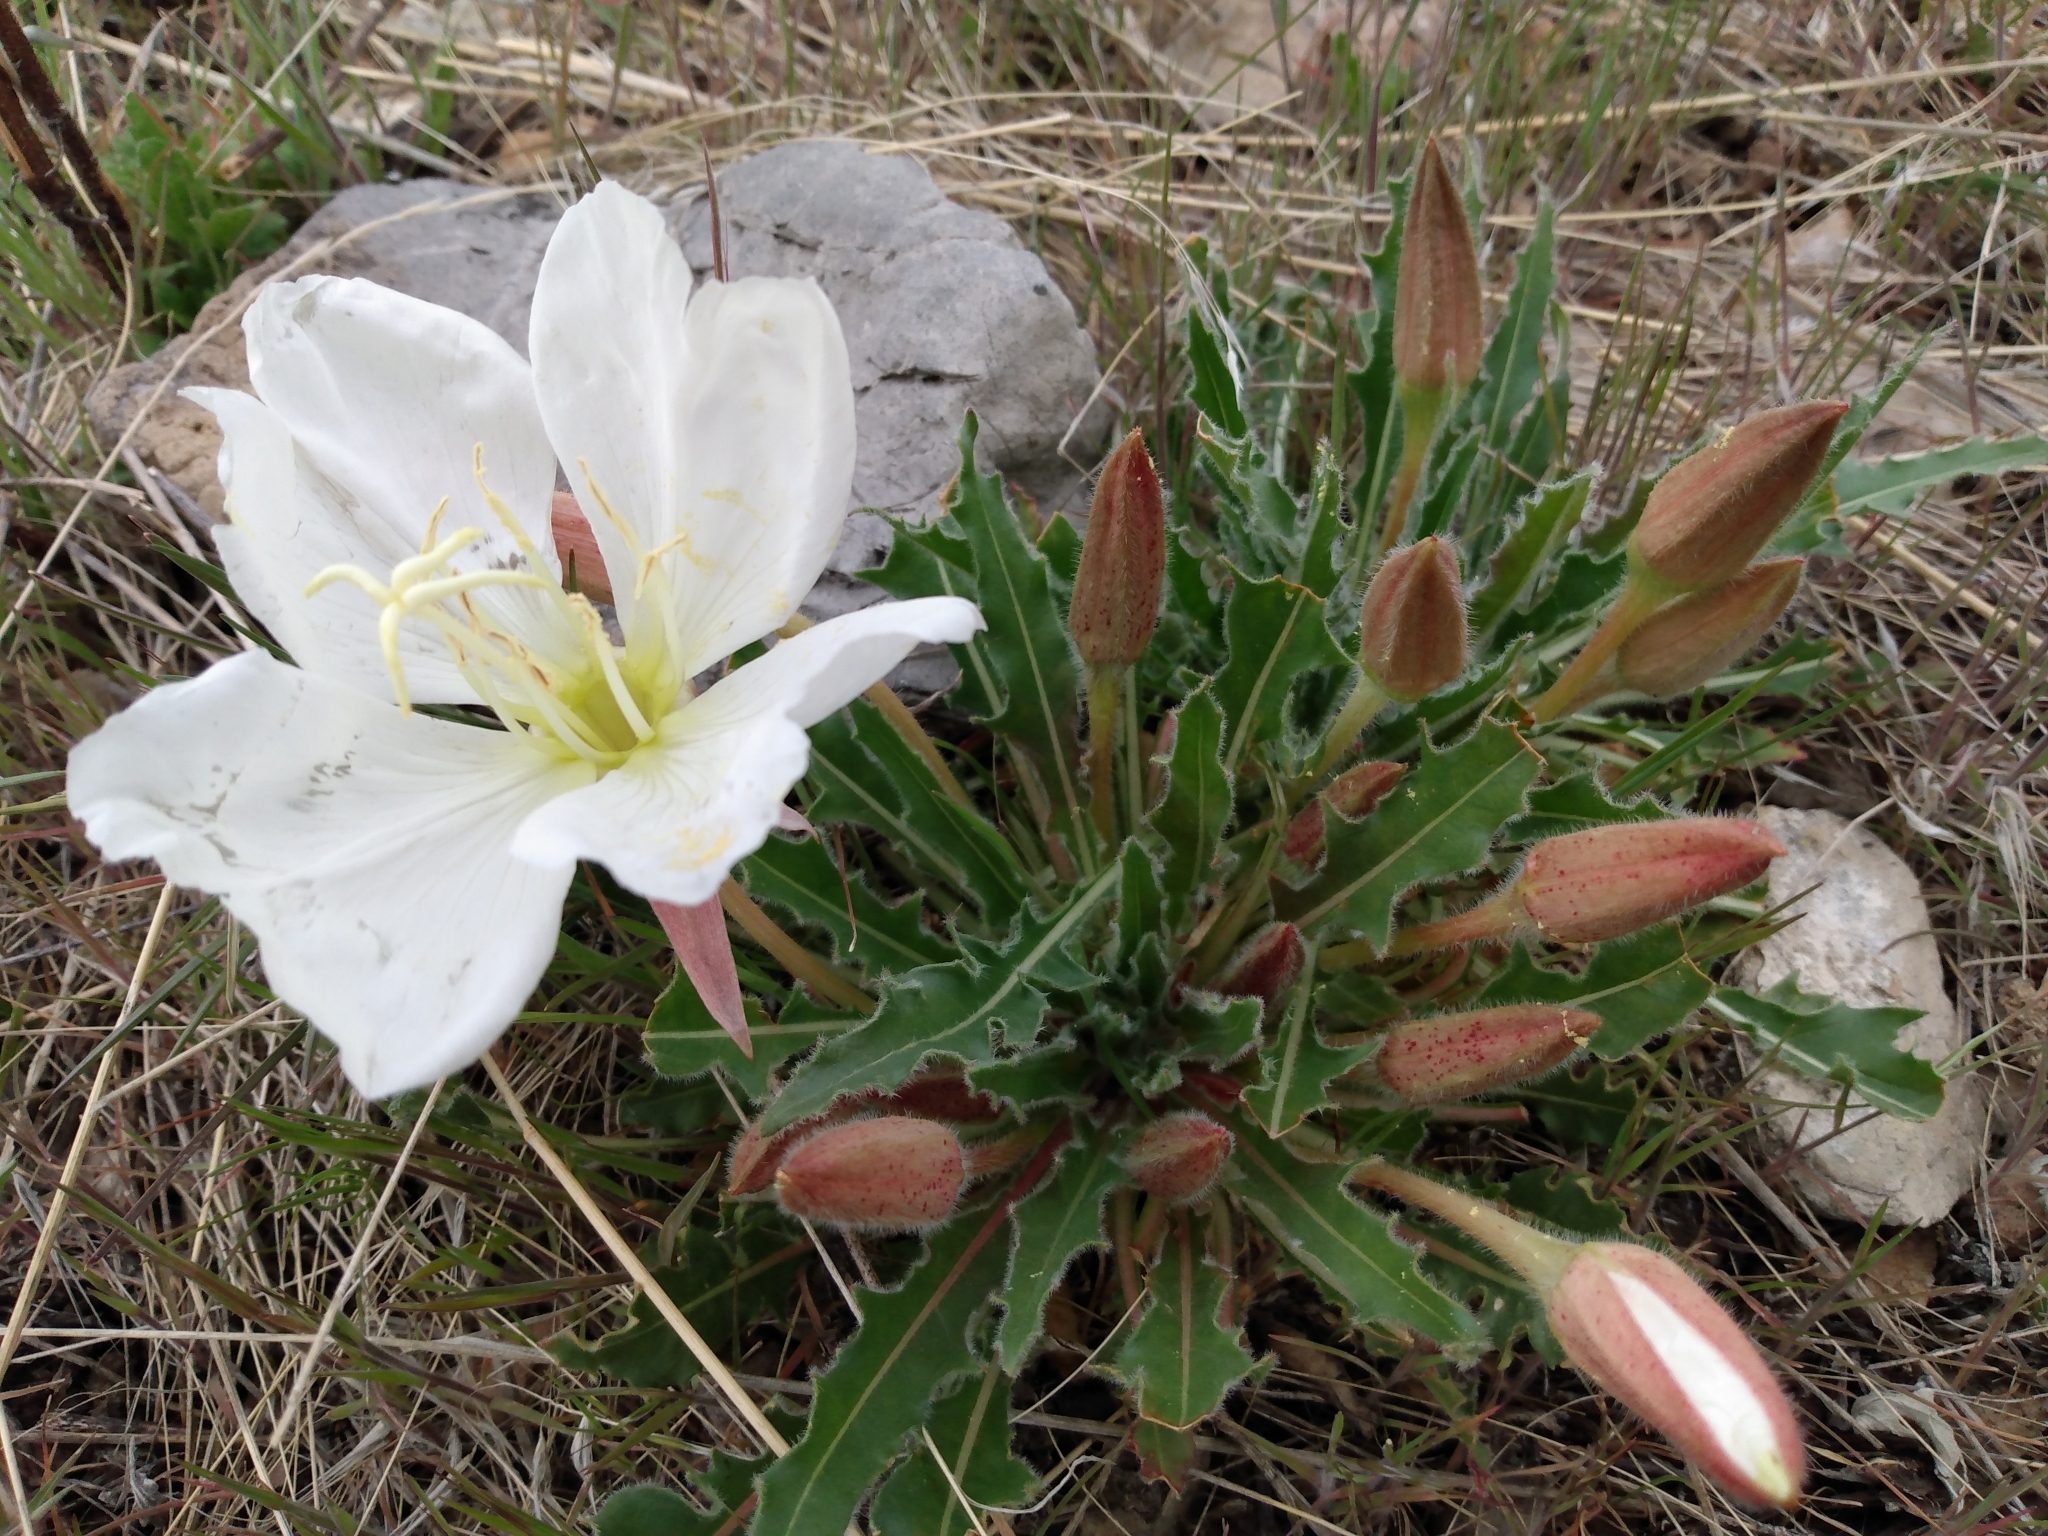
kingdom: Plantae
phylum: Tracheophyta
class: Magnoliopsida
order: Myrtales
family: Onagraceae
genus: Oenothera
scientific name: Oenothera cespitosa
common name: Tufted evening-primrose
